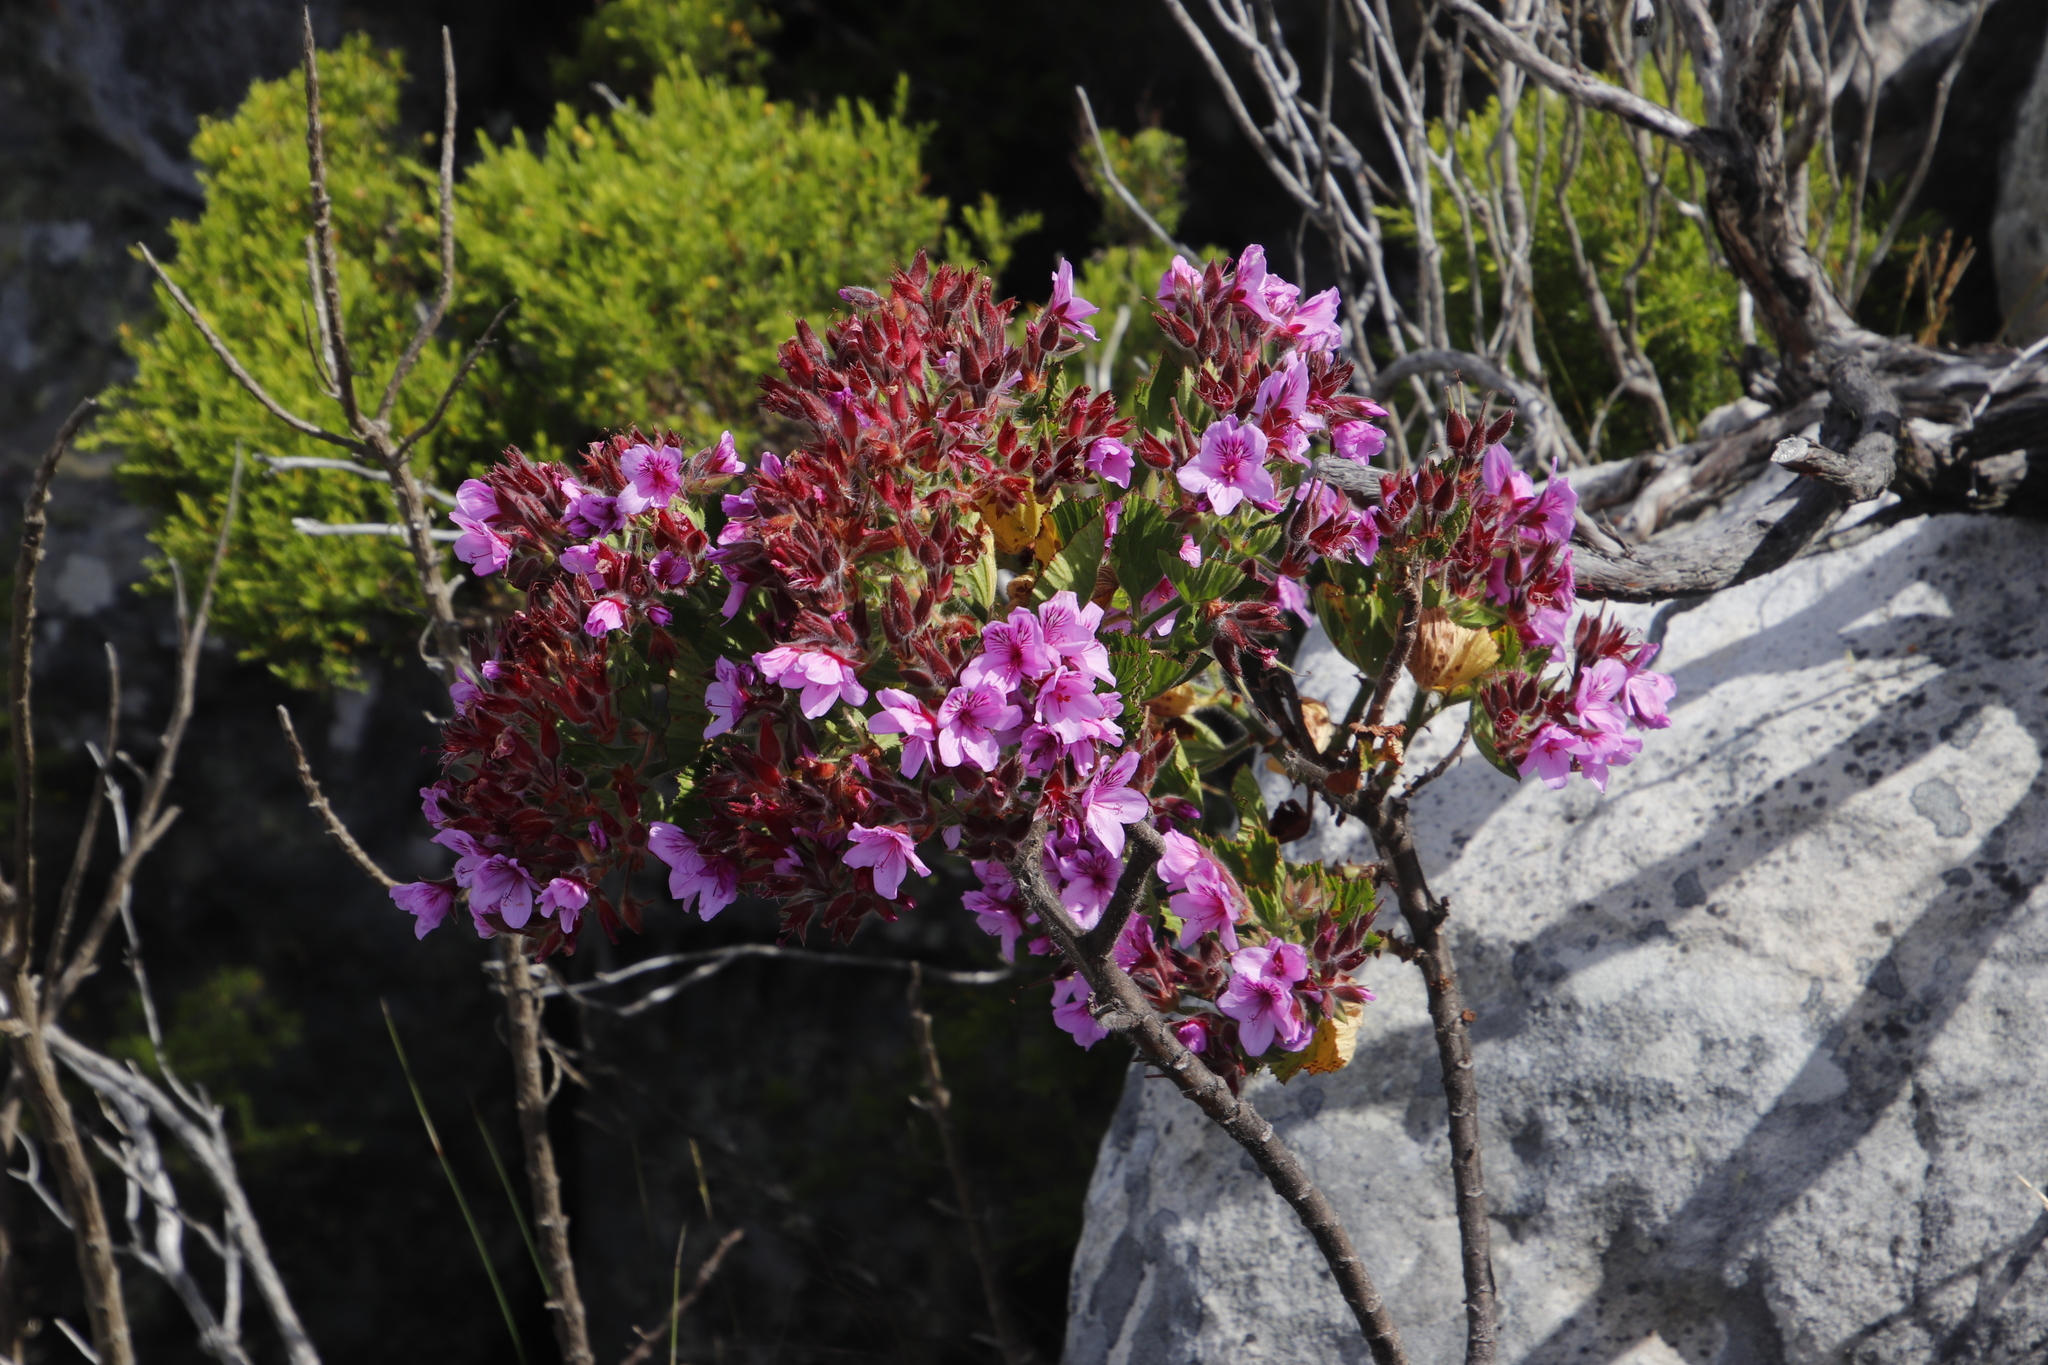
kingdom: Plantae
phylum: Tracheophyta
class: Magnoliopsida
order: Geraniales
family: Geraniaceae
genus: Pelargonium
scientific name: Pelargonium cucullatum
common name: Tree pelargonium
